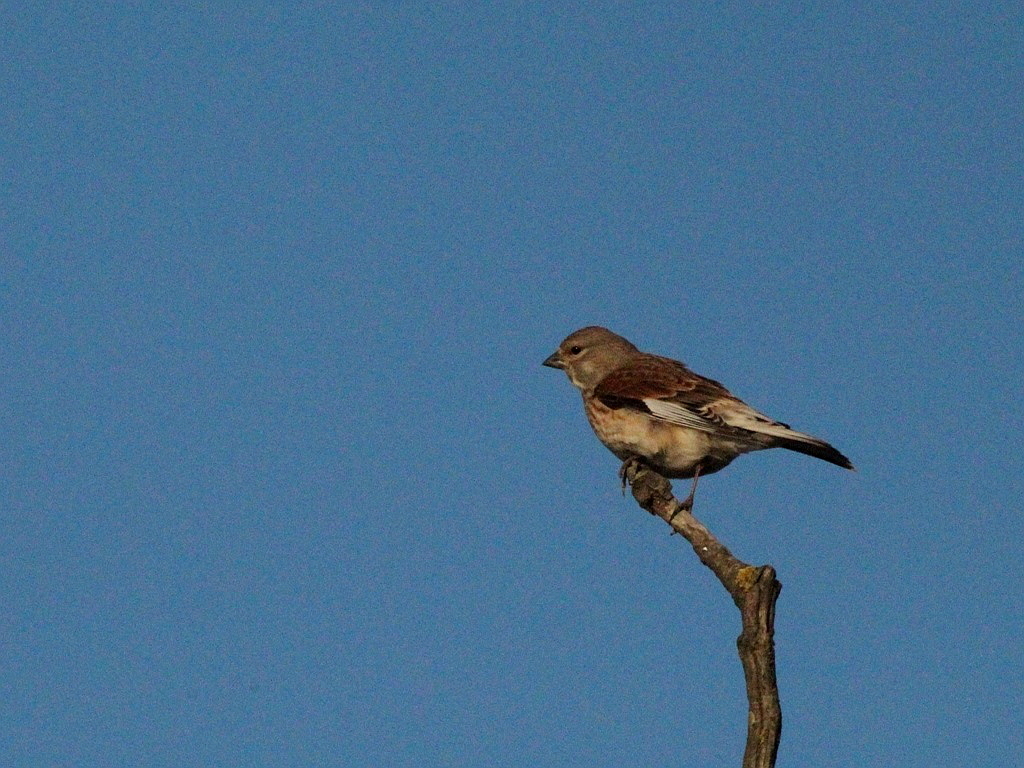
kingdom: Animalia
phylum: Chordata
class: Aves
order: Passeriformes
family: Fringillidae
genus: Linaria
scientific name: Linaria cannabina
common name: Common linnet
